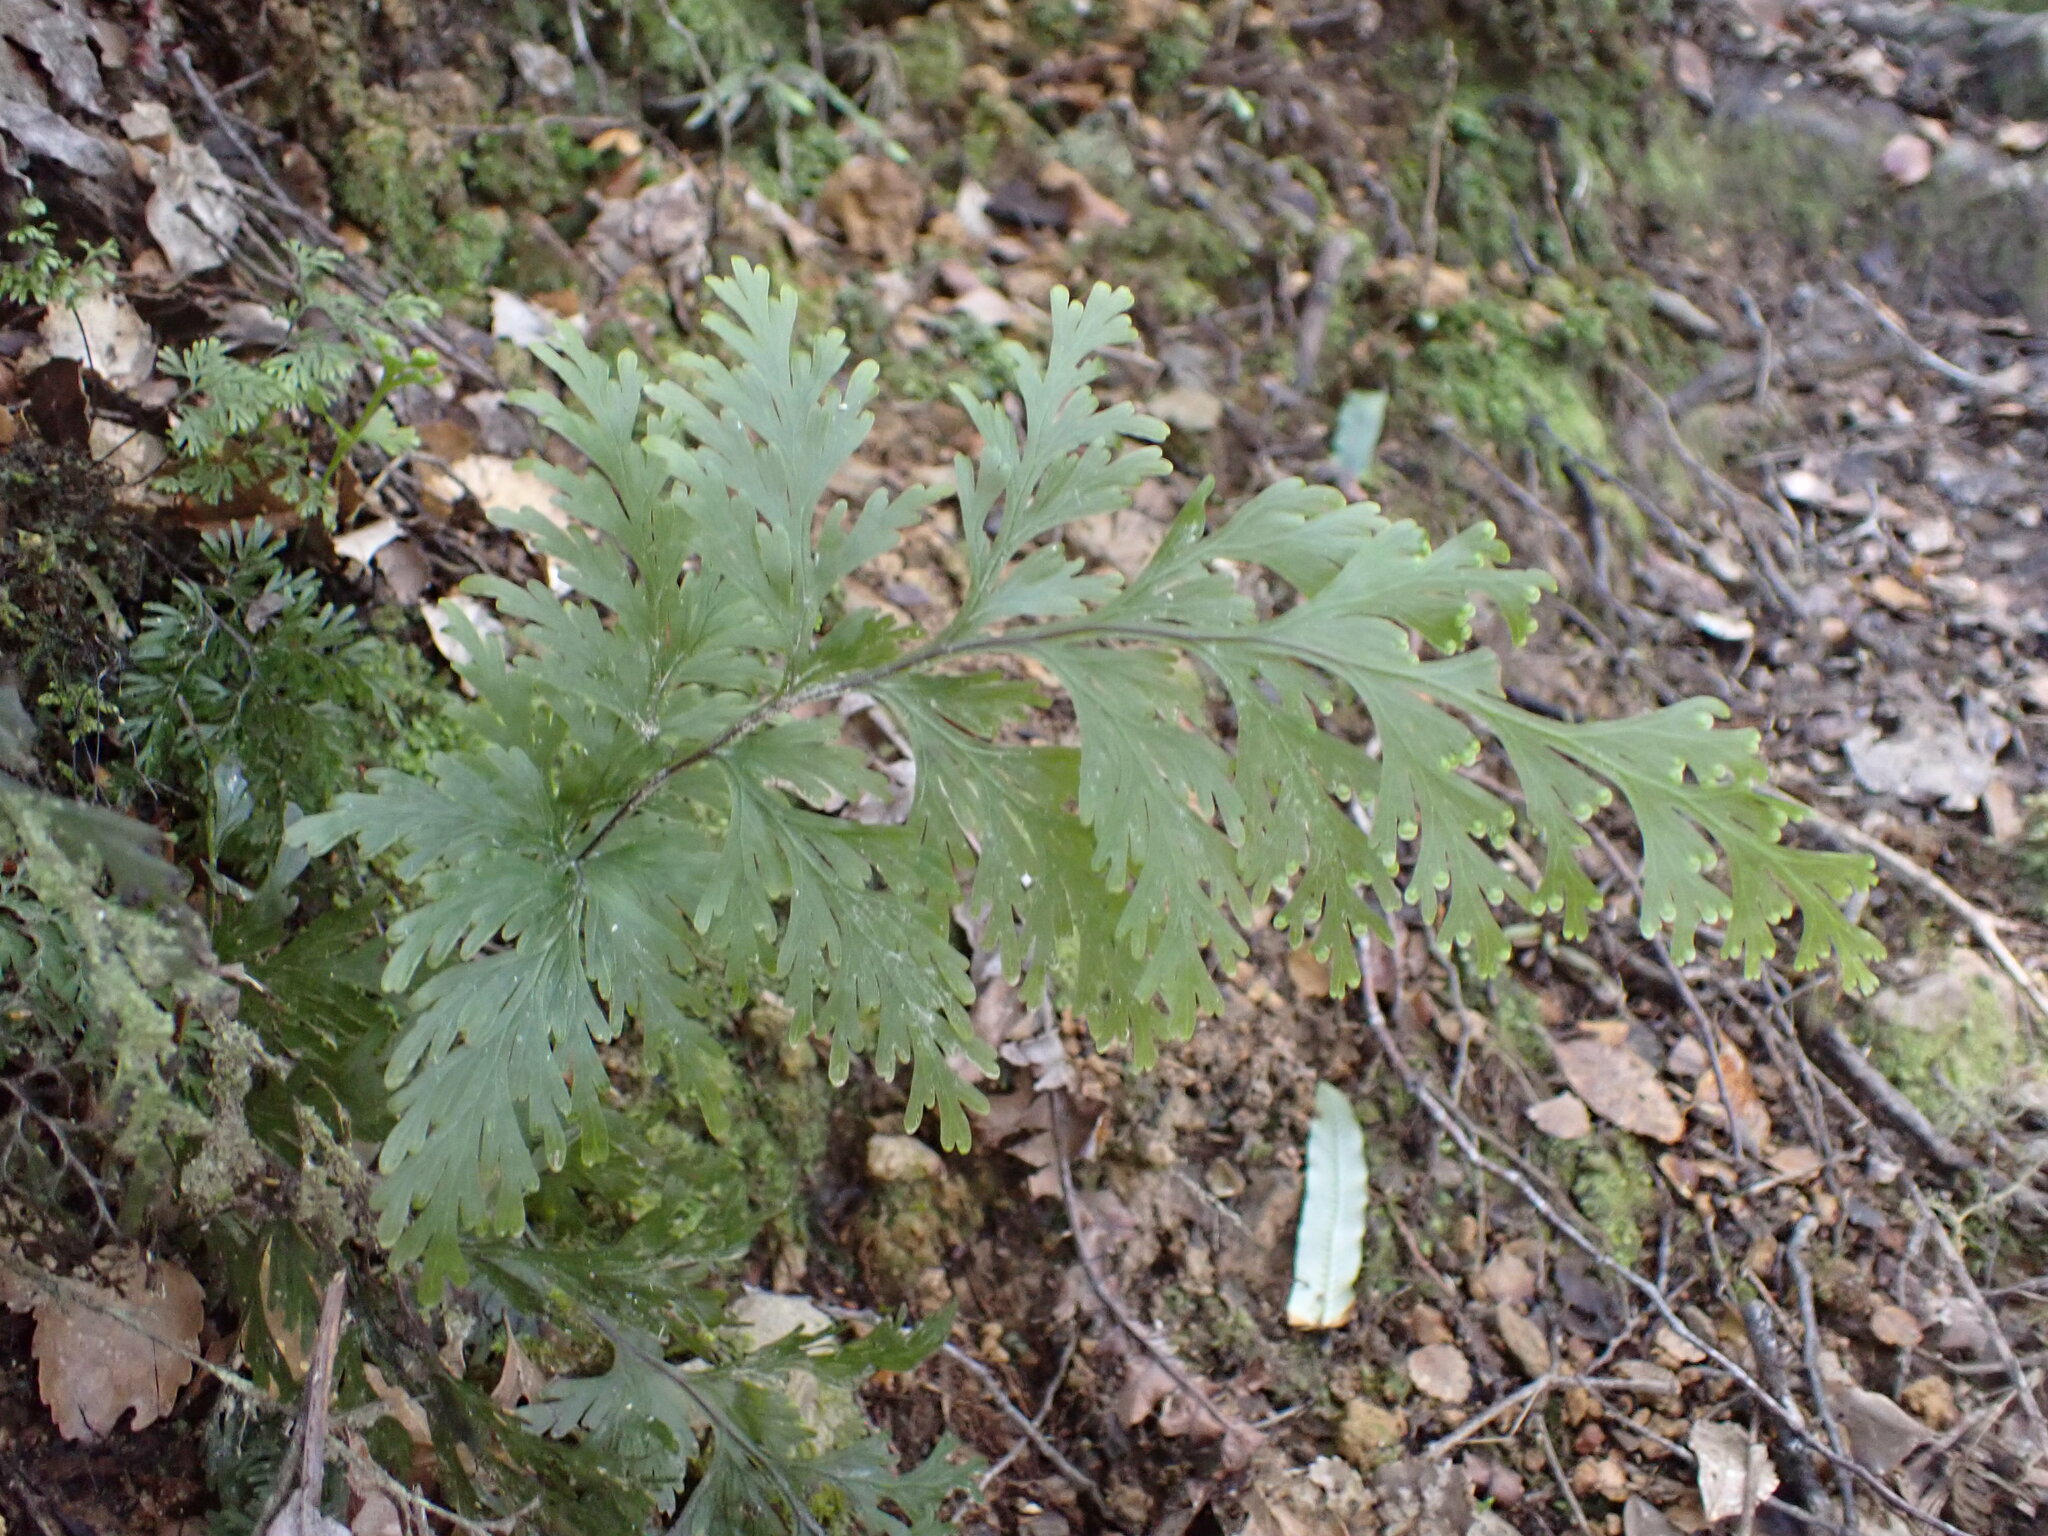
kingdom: Plantae
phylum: Tracheophyta
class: Polypodiopsida
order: Hymenophyllales
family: Hymenophyllaceae
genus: Hymenophyllum
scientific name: Hymenophyllum dilatatum
